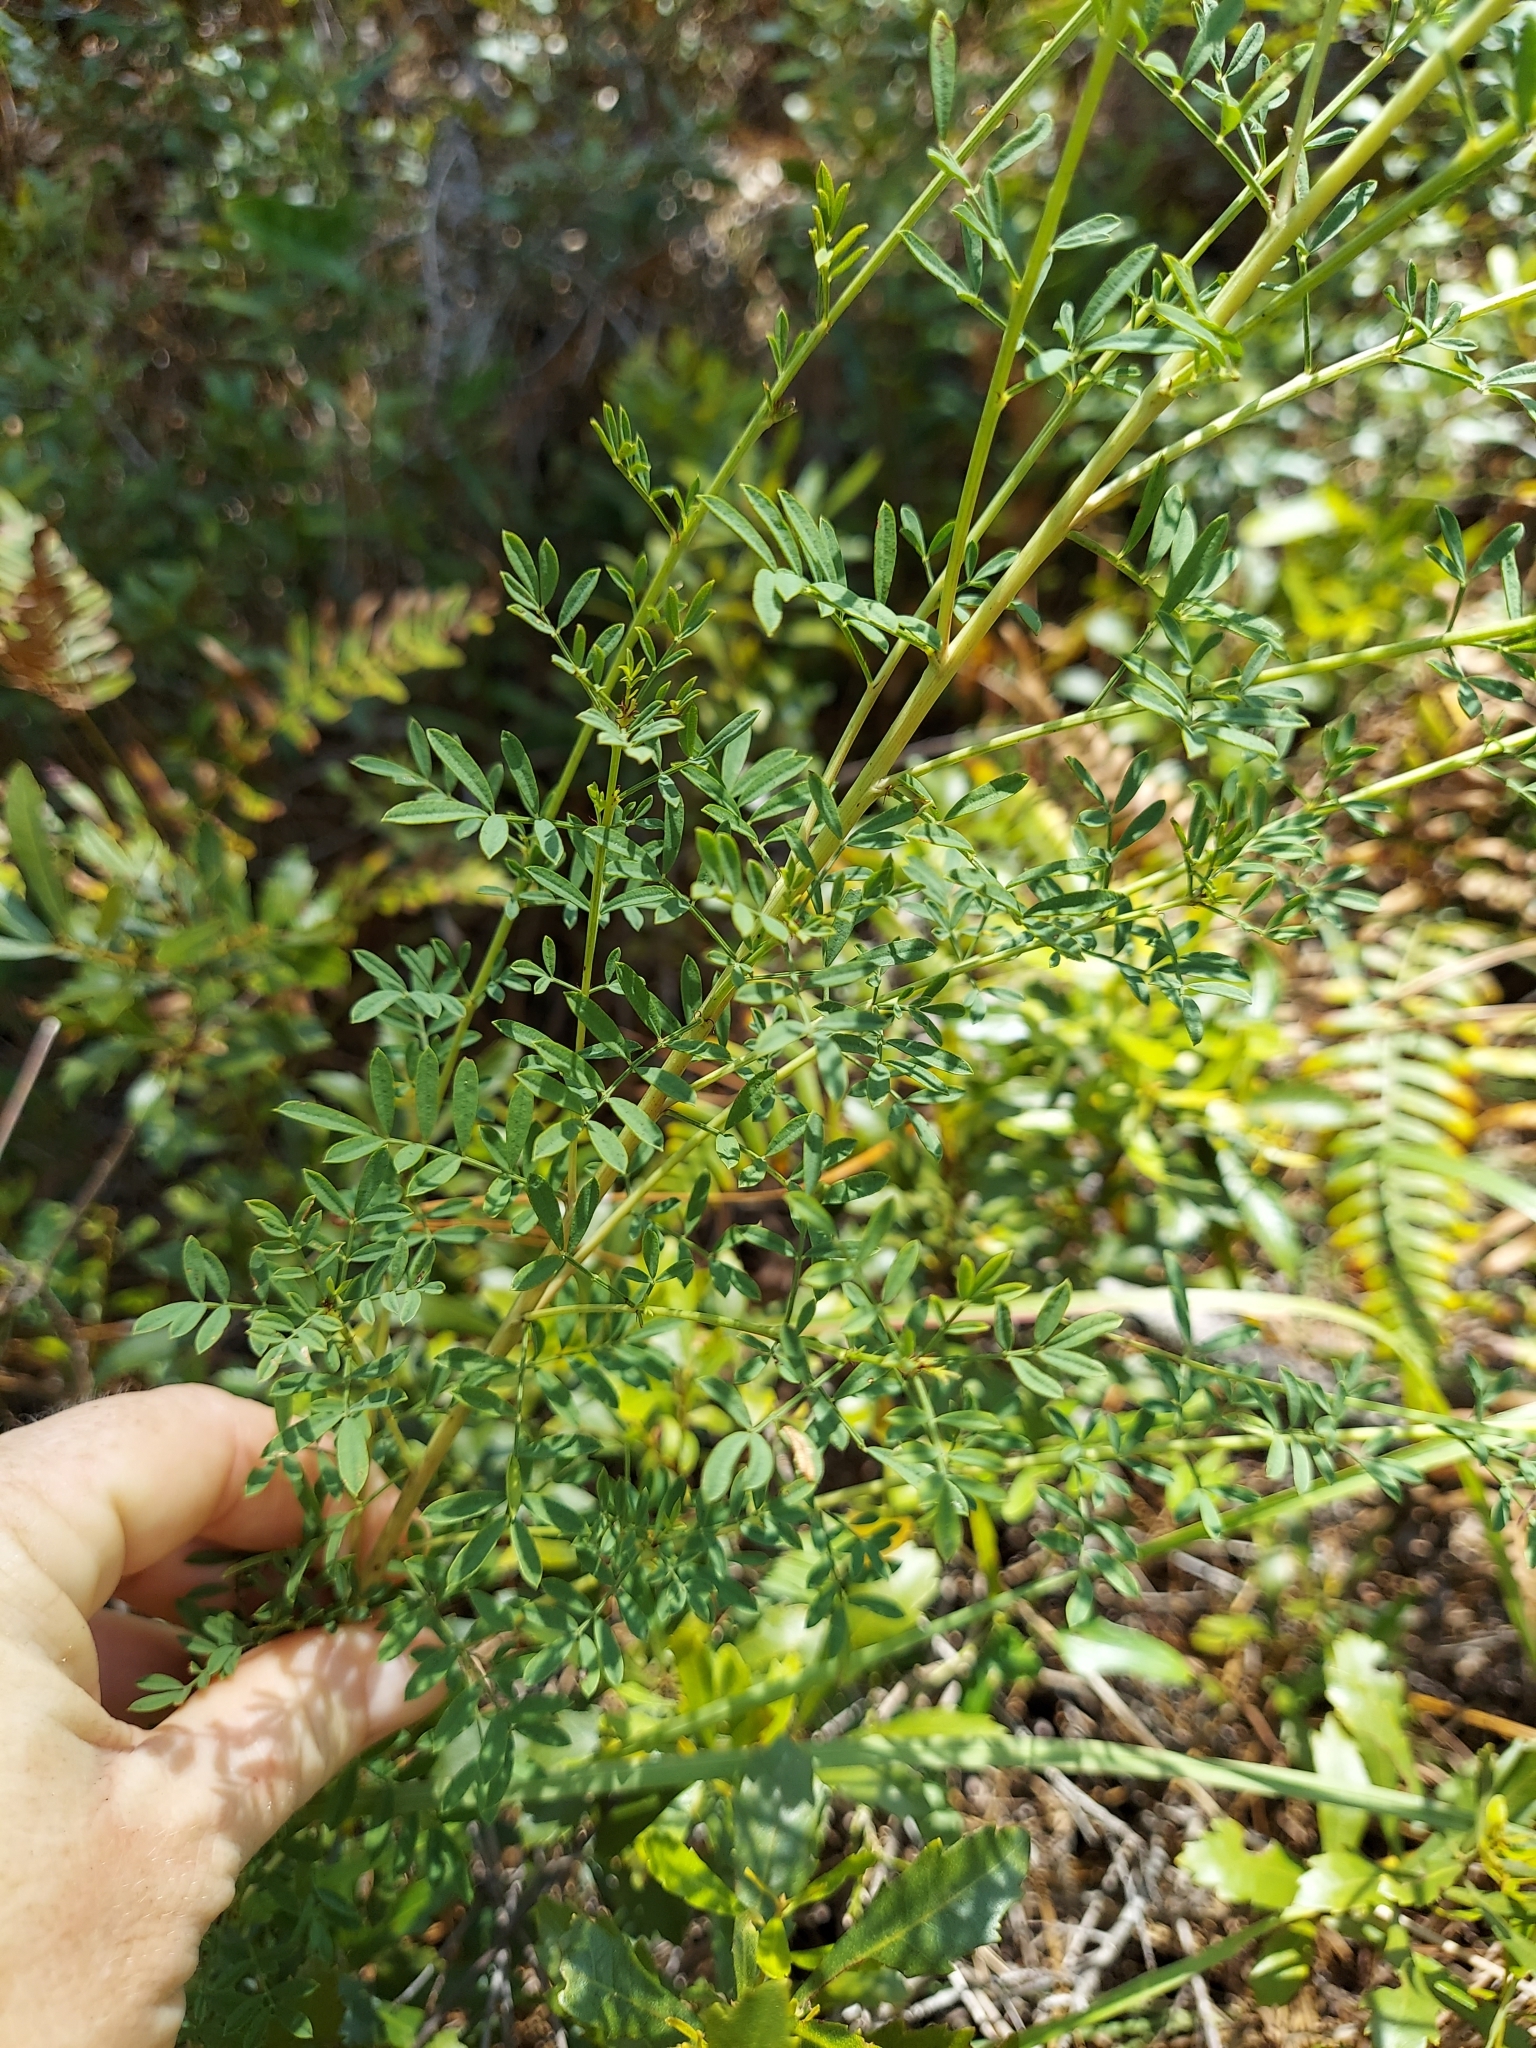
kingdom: Plantae
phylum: Tracheophyta
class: Magnoliopsida
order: Fabales
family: Fabaceae
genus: Dalea
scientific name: Dalea carnea
